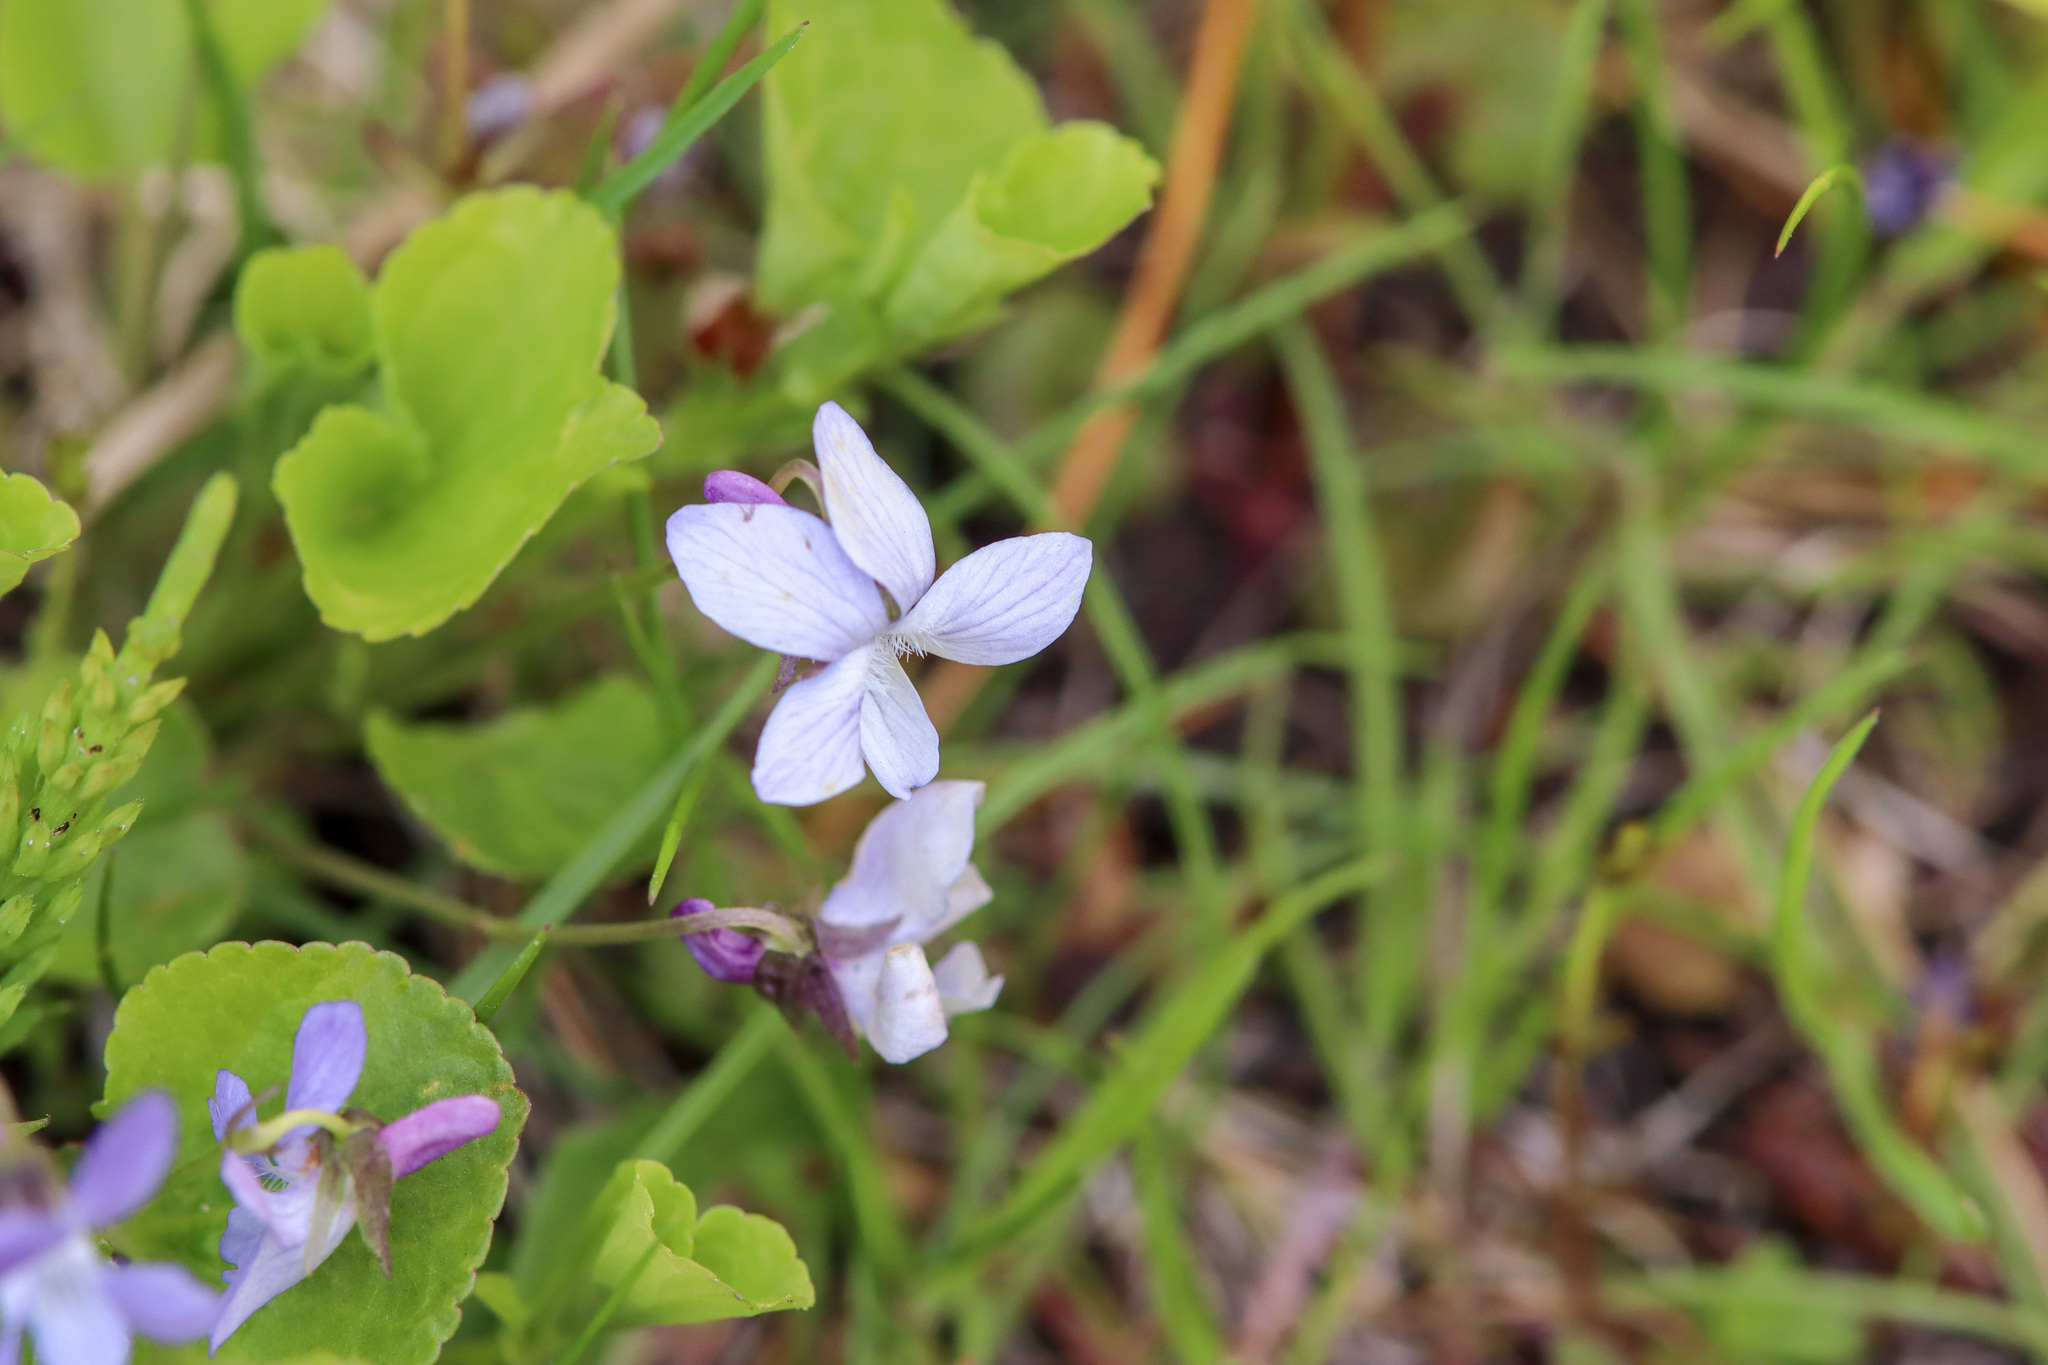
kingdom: Plantae
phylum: Tracheophyta
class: Magnoliopsida
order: Malpighiales
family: Violaceae
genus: Viola
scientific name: Viola labradorica
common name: Labrador violet
